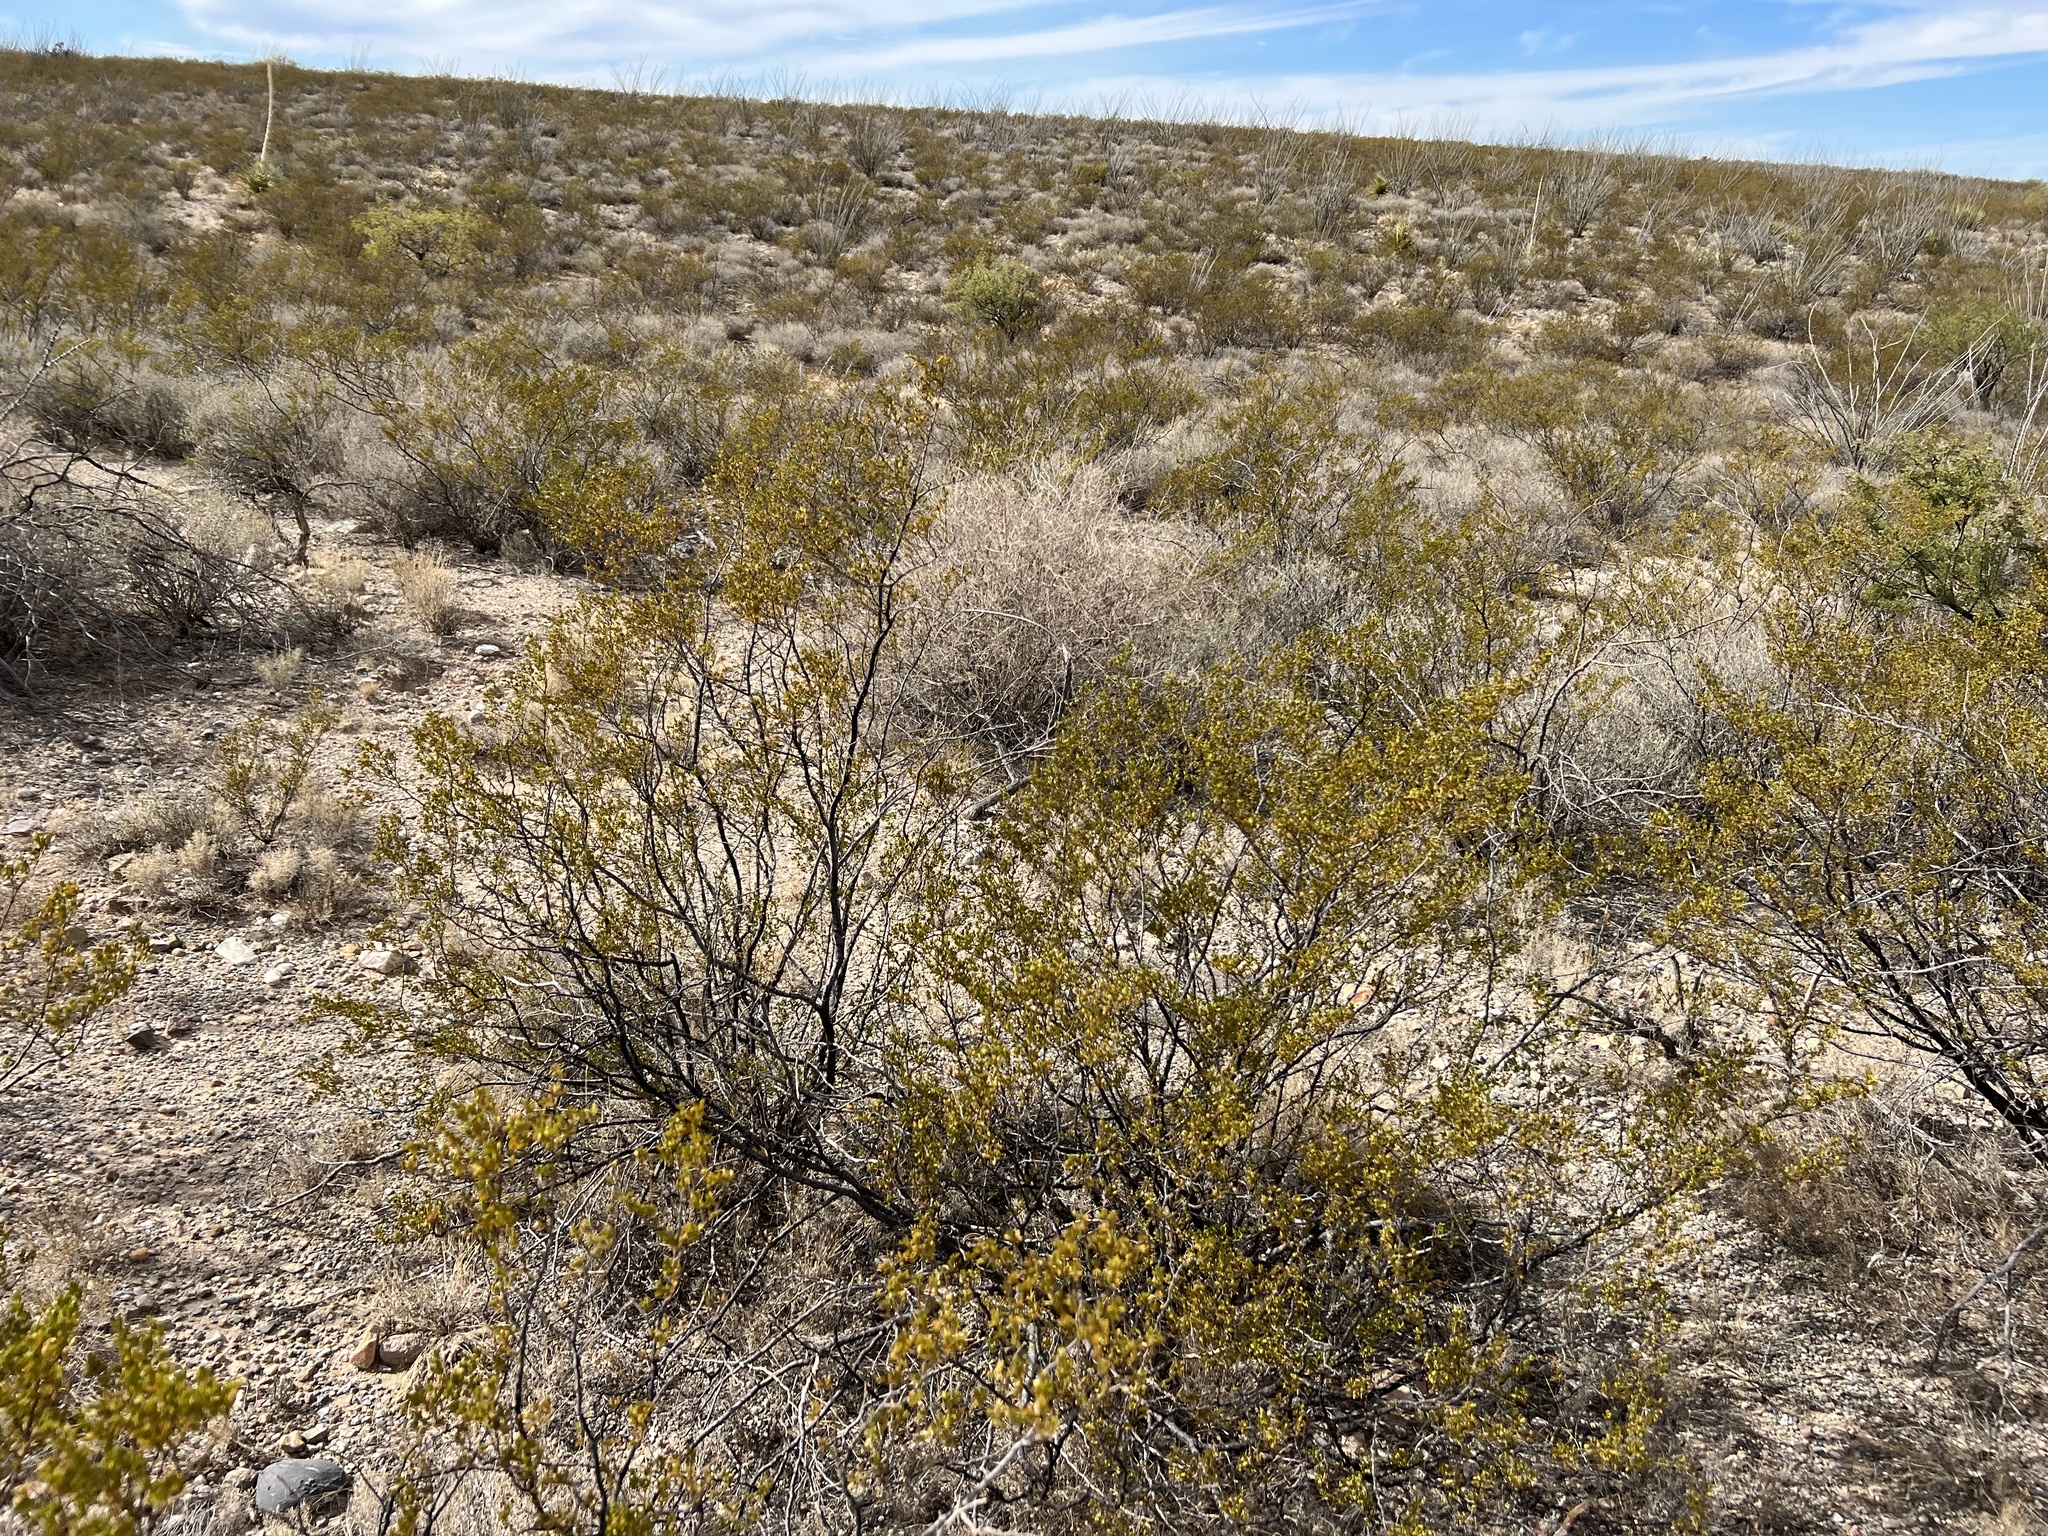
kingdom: Plantae
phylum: Tracheophyta
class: Magnoliopsida
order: Zygophyllales
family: Zygophyllaceae
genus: Larrea
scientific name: Larrea tridentata
